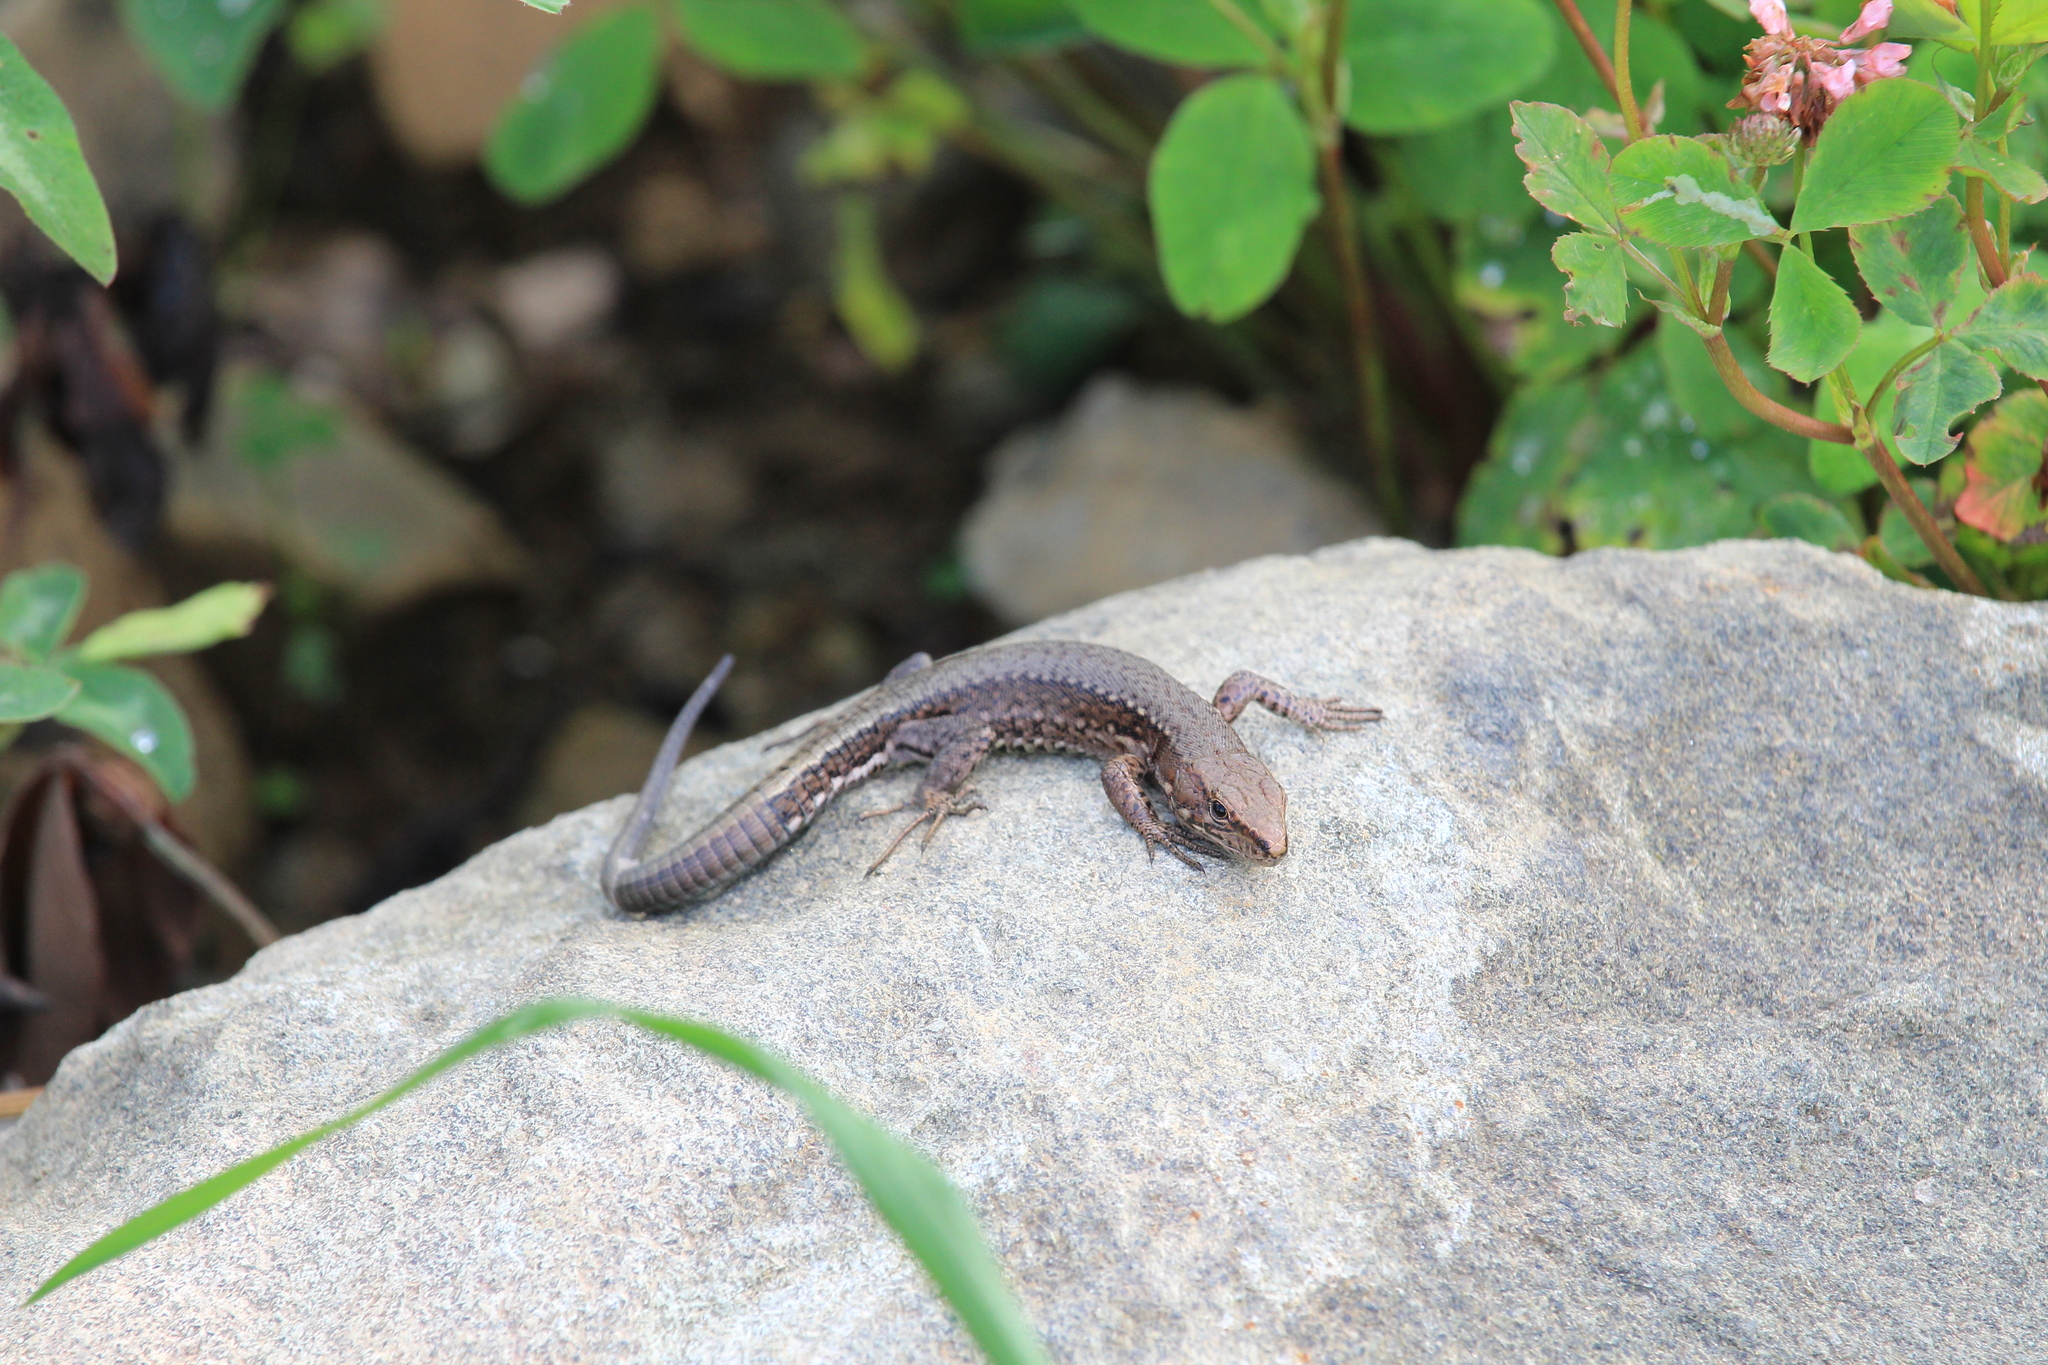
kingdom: Animalia
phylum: Chordata
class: Squamata
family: Lacertidae
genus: Darevskia
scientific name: Darevskia derjugini
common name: Derjugin's lizard
